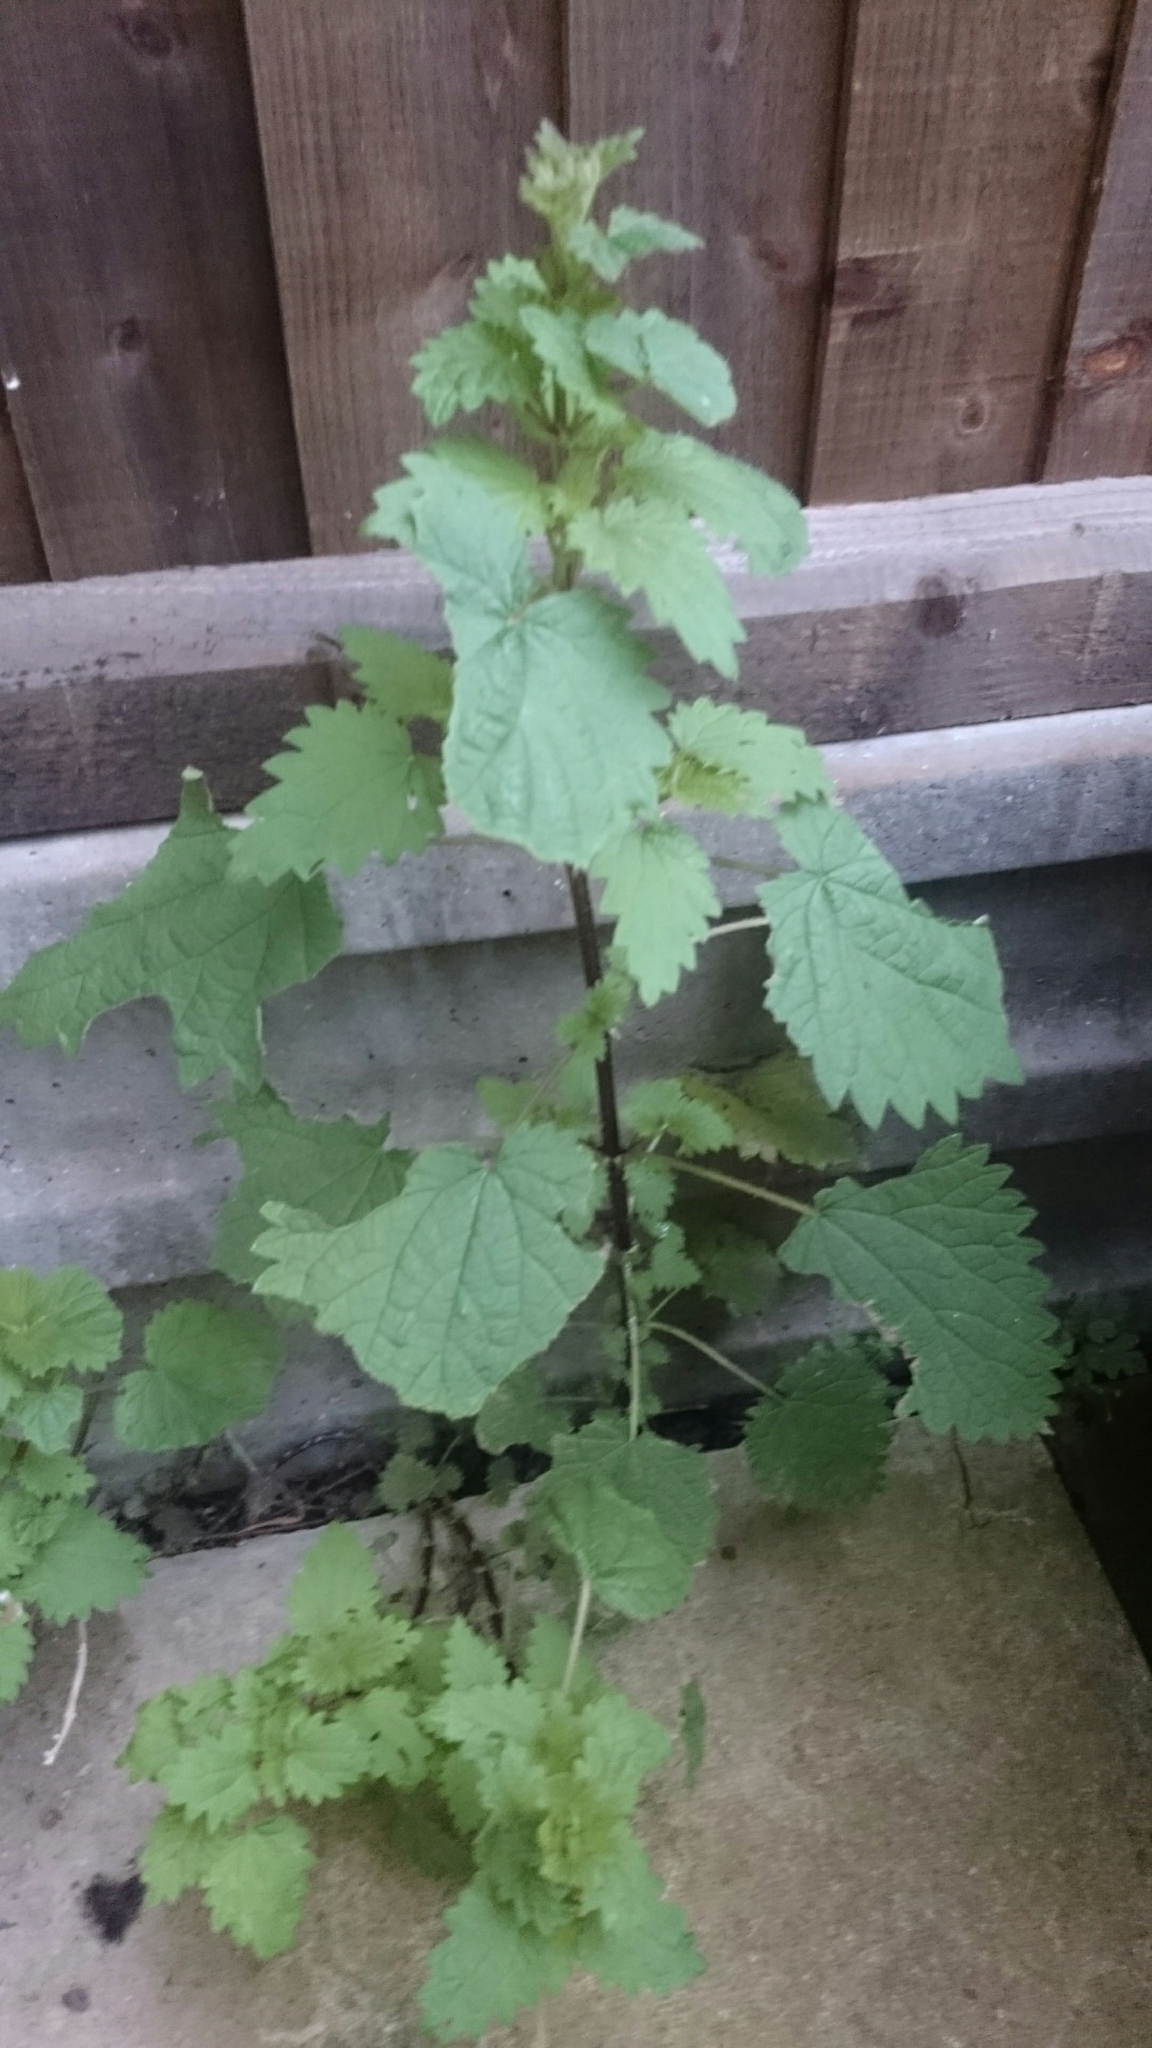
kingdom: Plantae
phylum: Tracheophyta
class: Magnoliopsida
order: Rosales
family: Urticaceae
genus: Urtica
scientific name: Urtica dioica
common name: Common nettle
